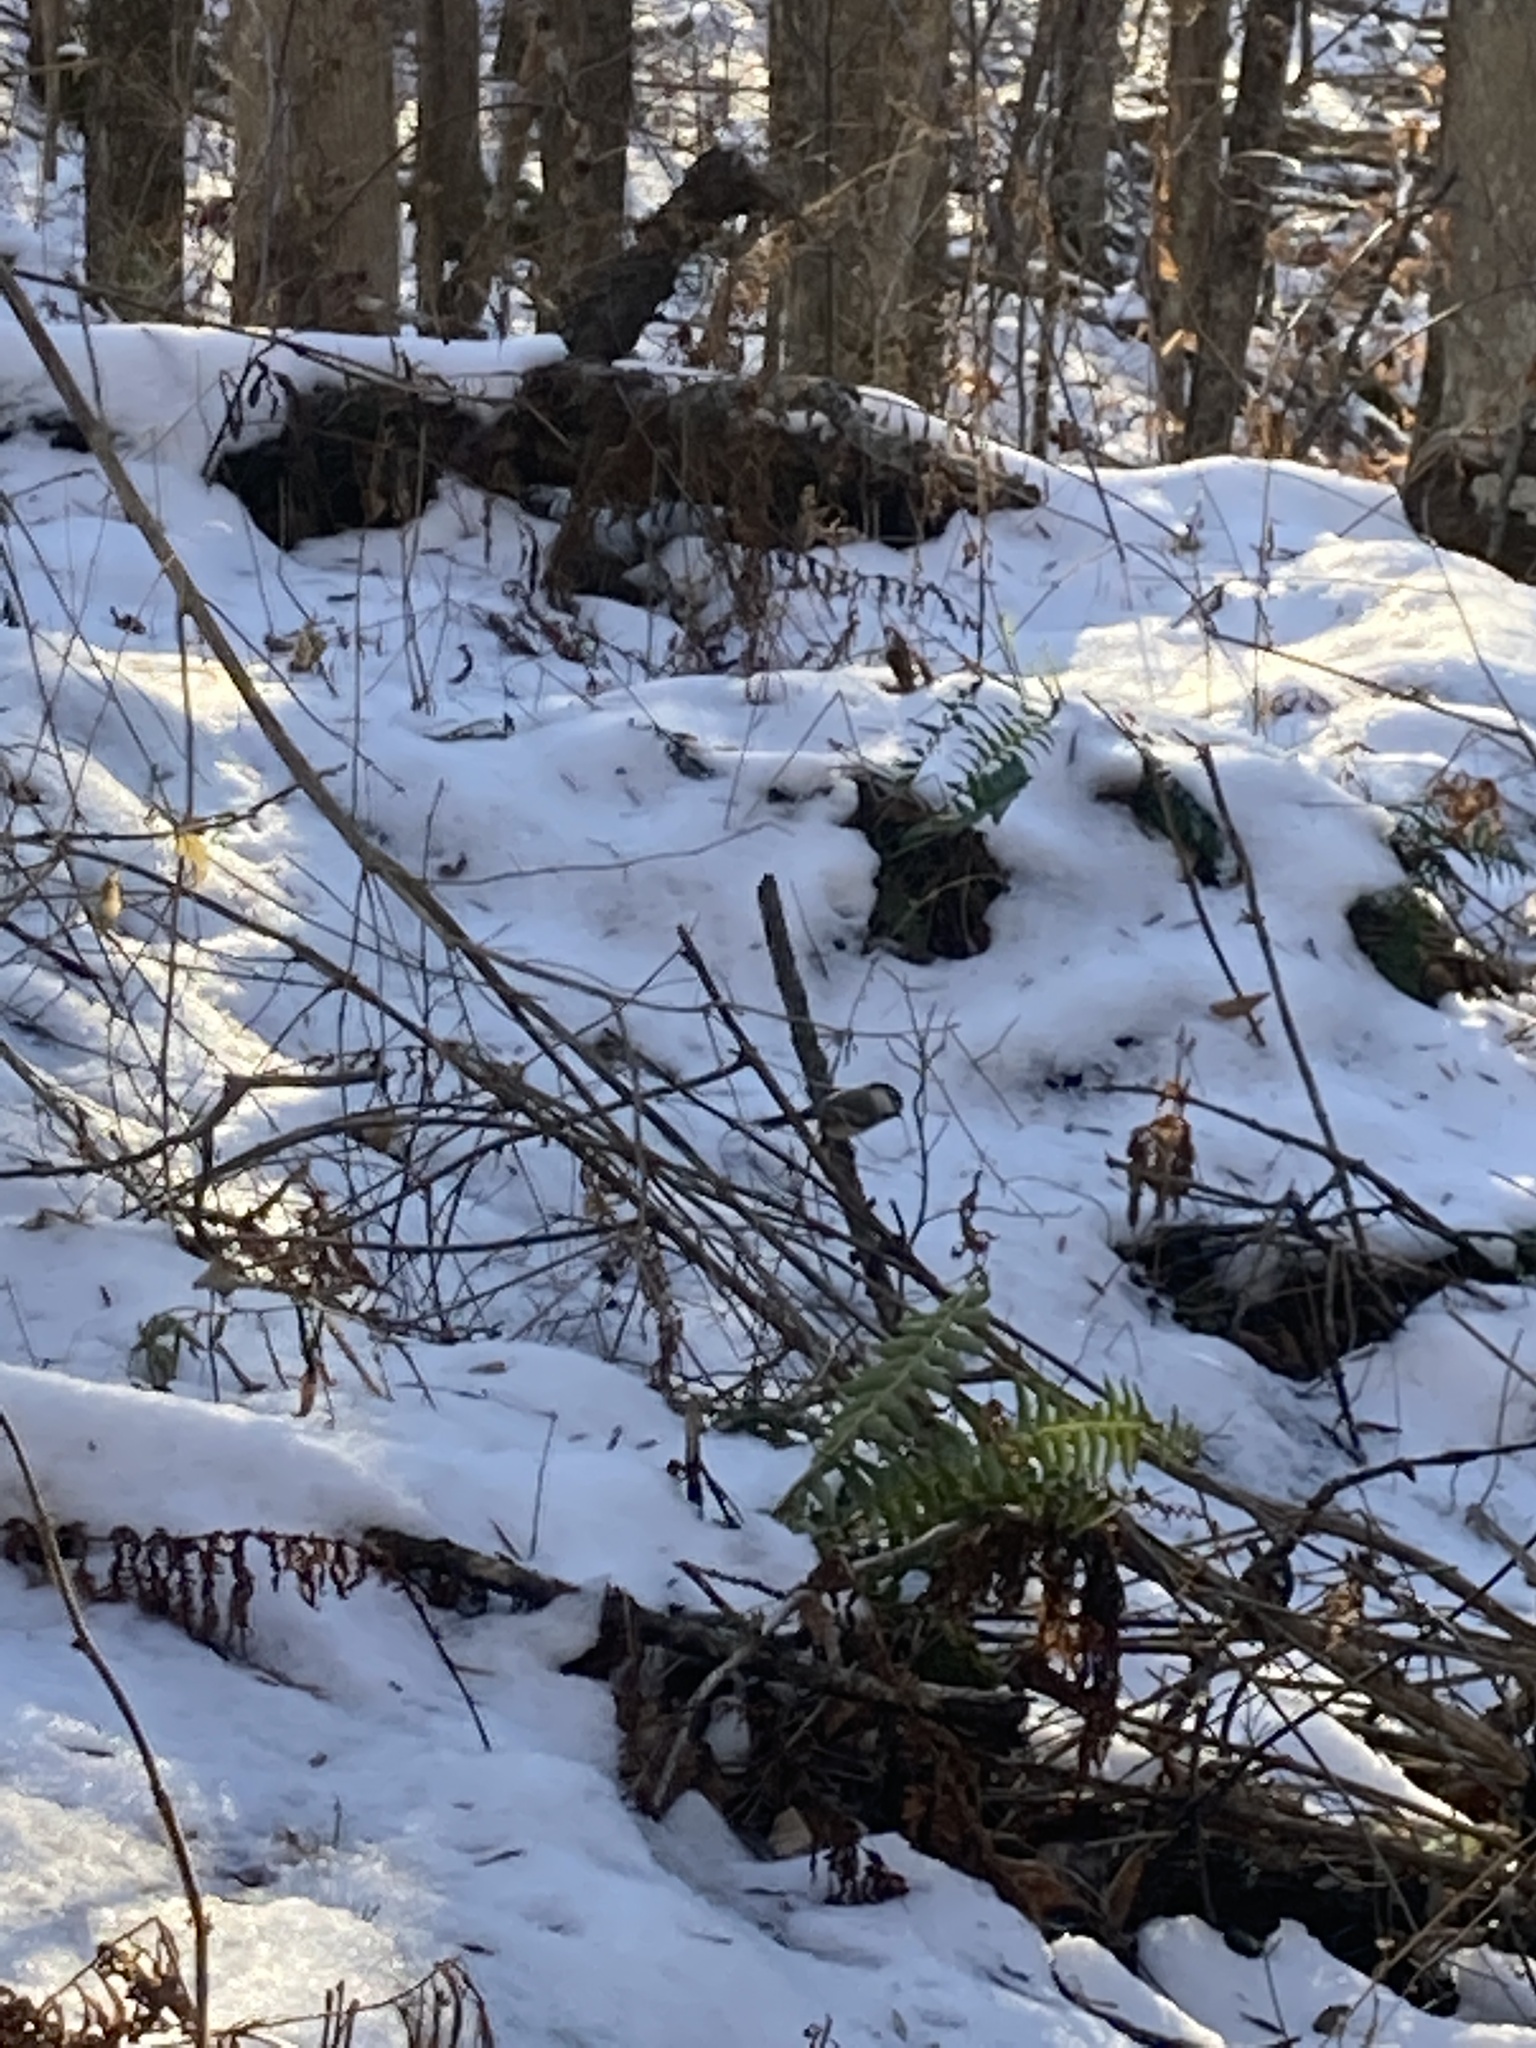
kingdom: Animalia
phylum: Chordata
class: Aves
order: Passeriformes
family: Paridae
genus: Poecile
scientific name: Poecile atricapillus
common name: Black-capped chickadee
